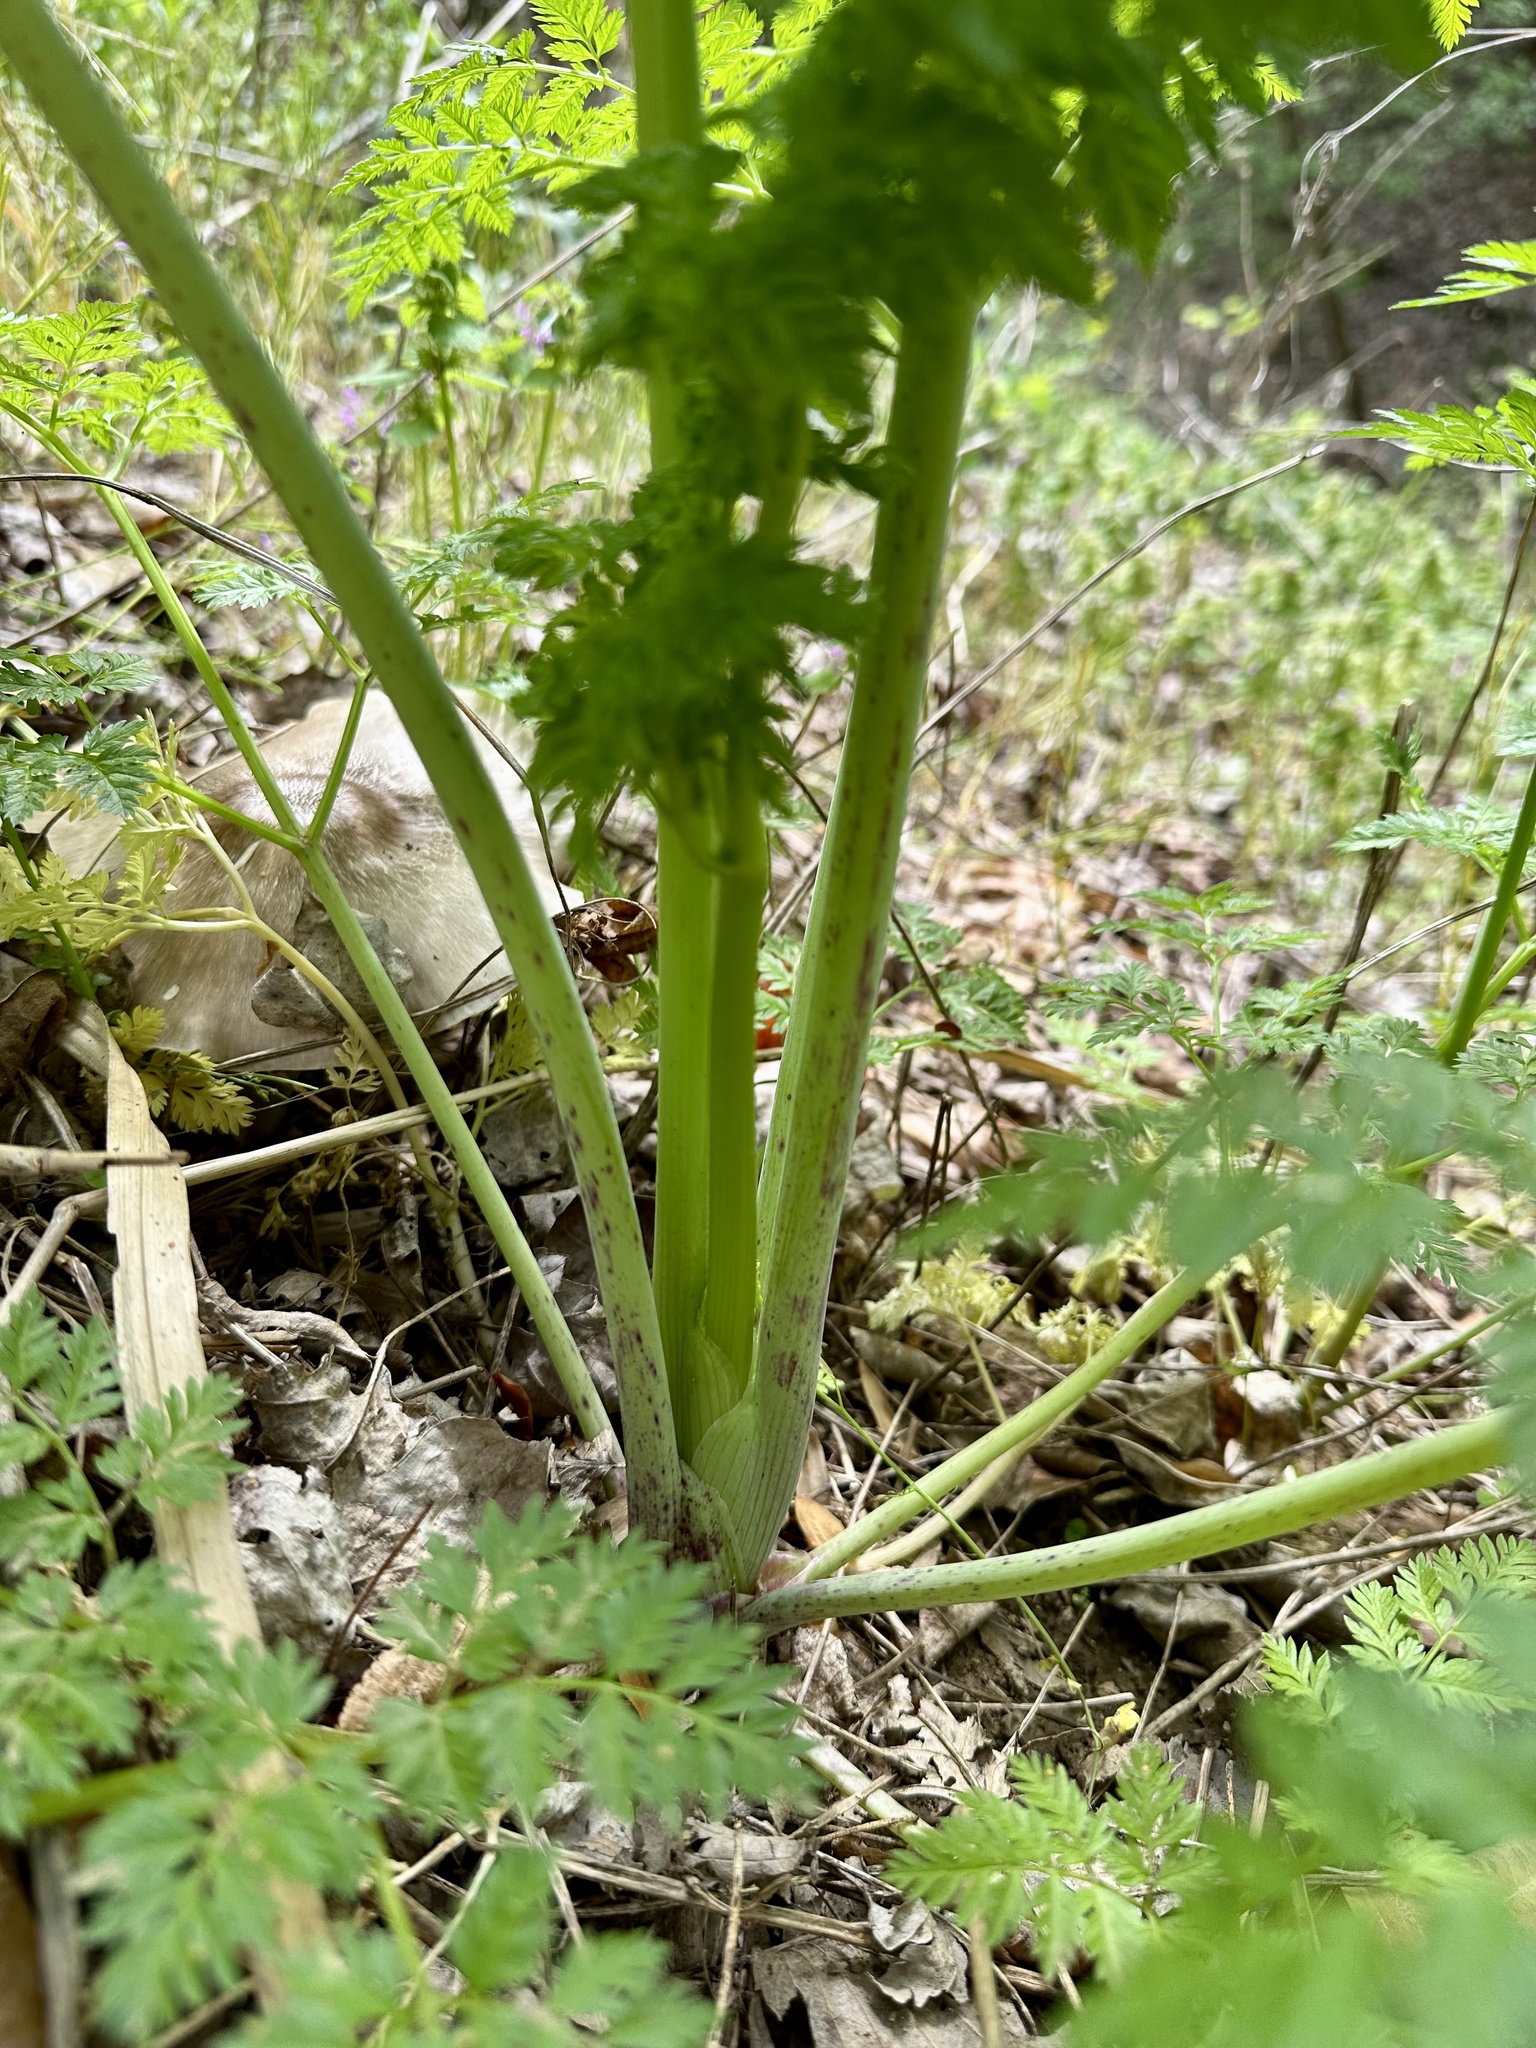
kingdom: Plantae
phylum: Tracheophyta
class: Magnoliopsida
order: Apiales
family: Apiaceae
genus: Conium
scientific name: Conium maculatum
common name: Hemlock
